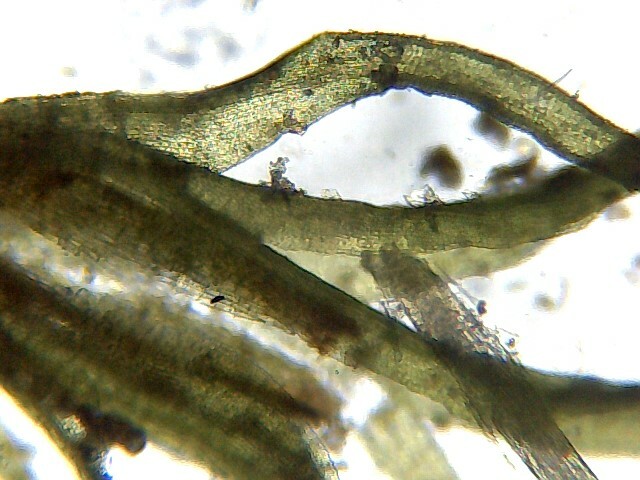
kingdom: Plantae
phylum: Bryophyta
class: Bryopsida
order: Pottiales
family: Pottiaceae
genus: Weissia
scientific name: Weissia controversa
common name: Green-tufted stubble moss
